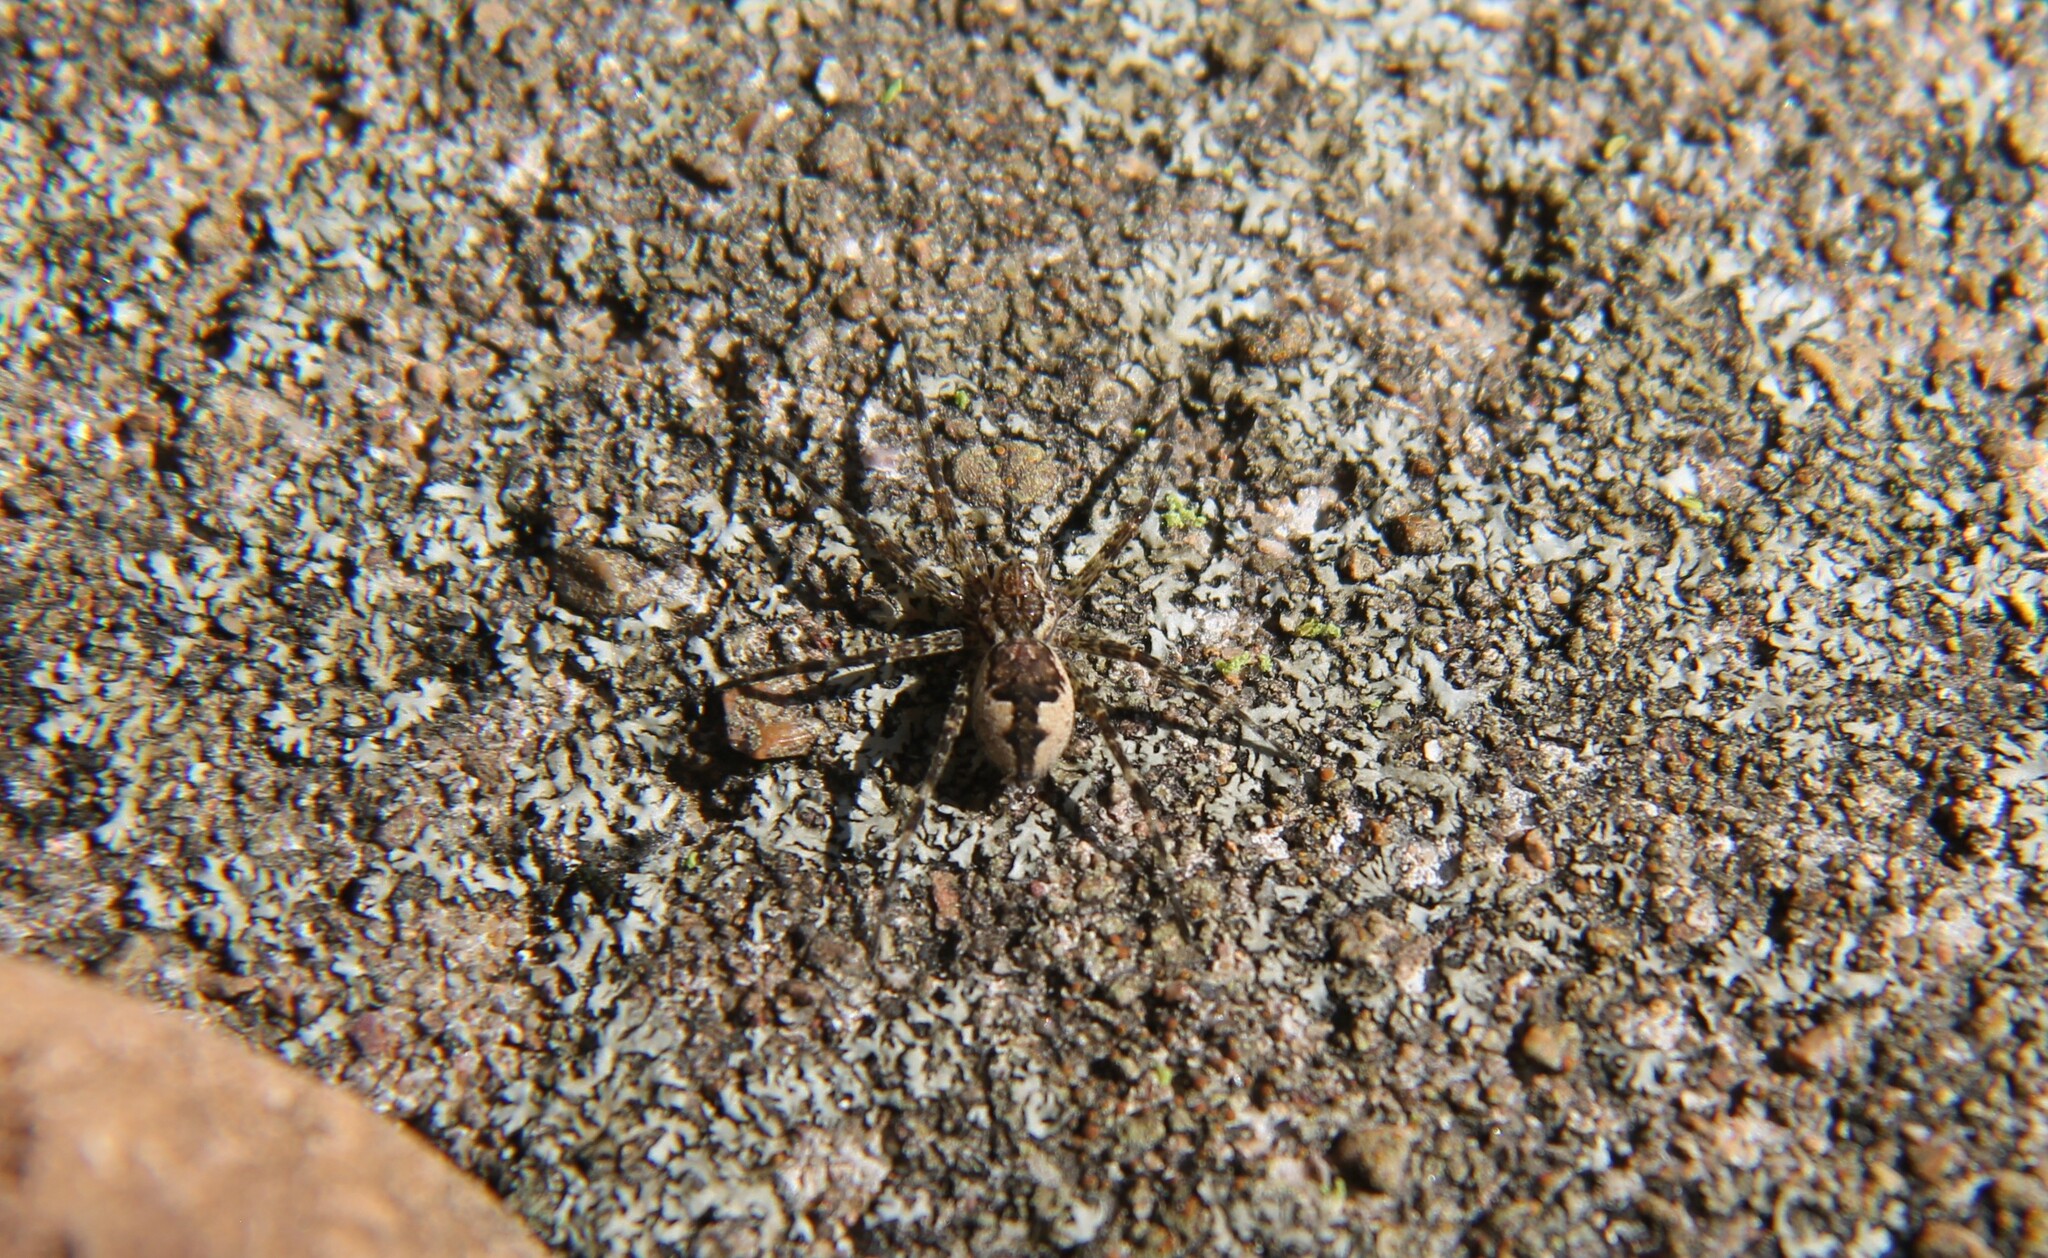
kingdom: Animalia
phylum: Arthropoda
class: Arachnida
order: Araneae
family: Pisauridae
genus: Dolomedes
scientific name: Dolomedes tenebrosus
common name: Dark fishing spider
